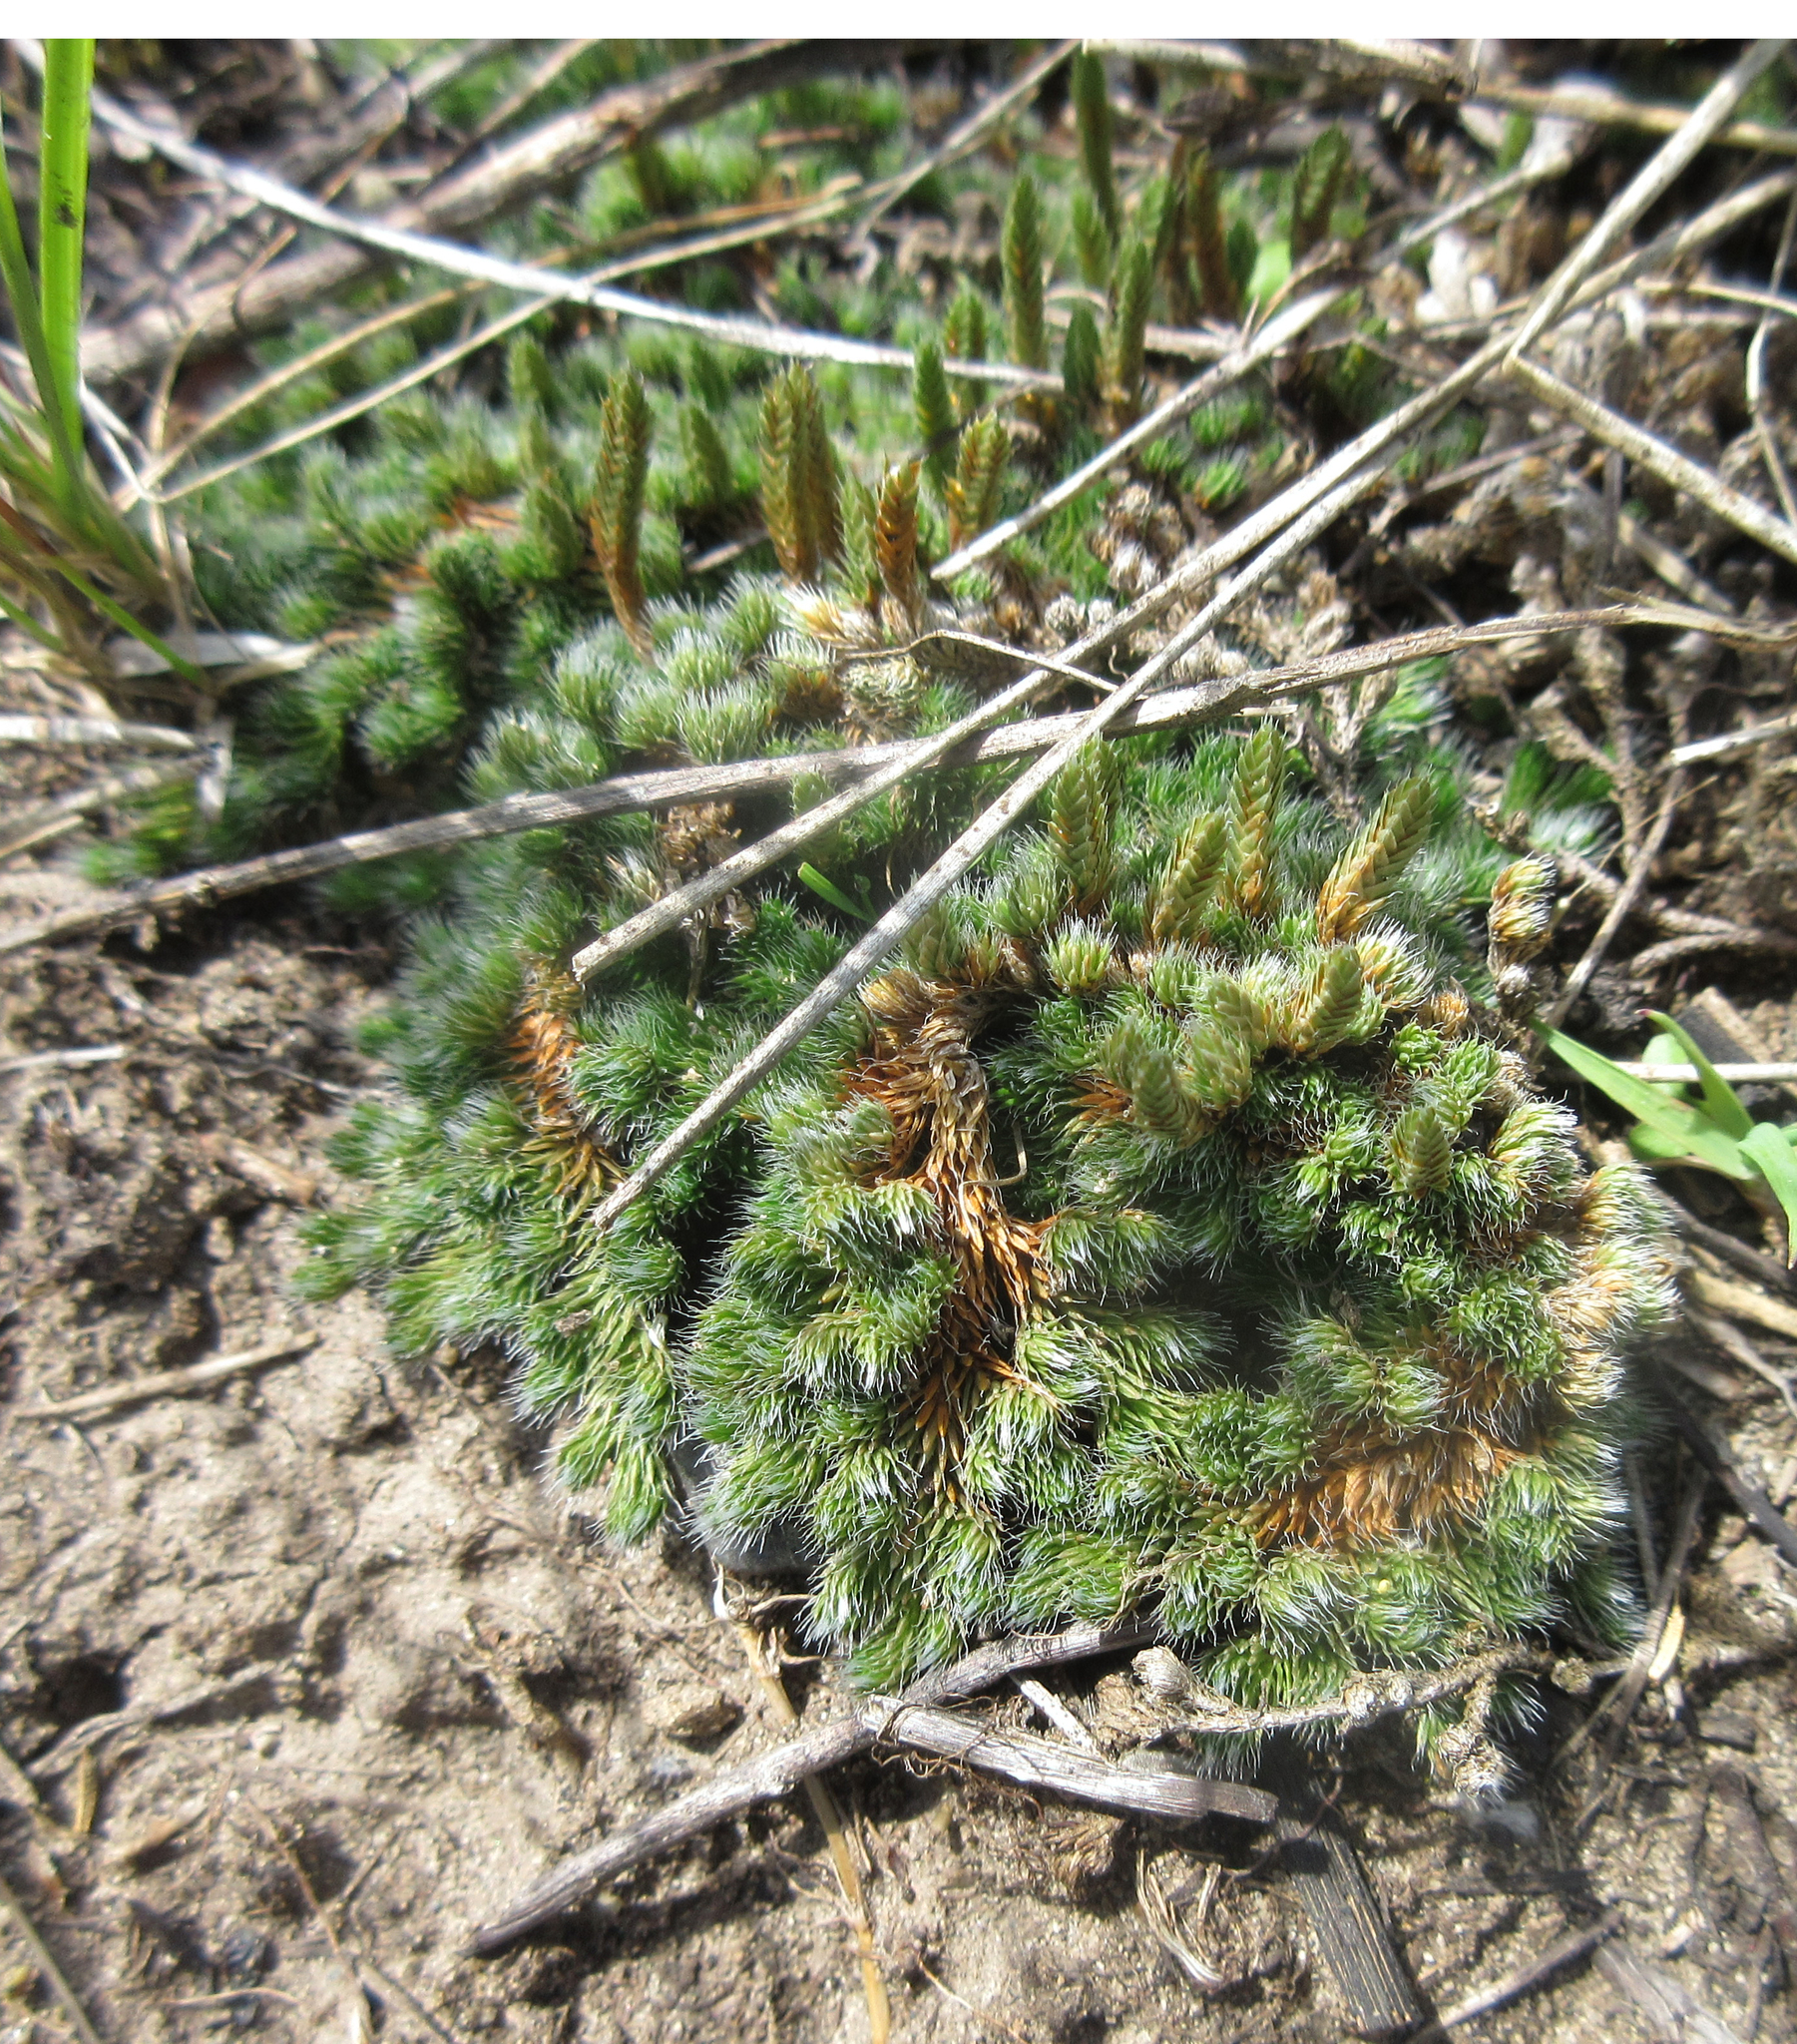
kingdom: Plantae
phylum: Tracheophyta
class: Lycopodiopsida
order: Selaginellales
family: Selaginellaceae
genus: Selaginella
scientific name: Selaginella densa
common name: Mountain spike-moss
